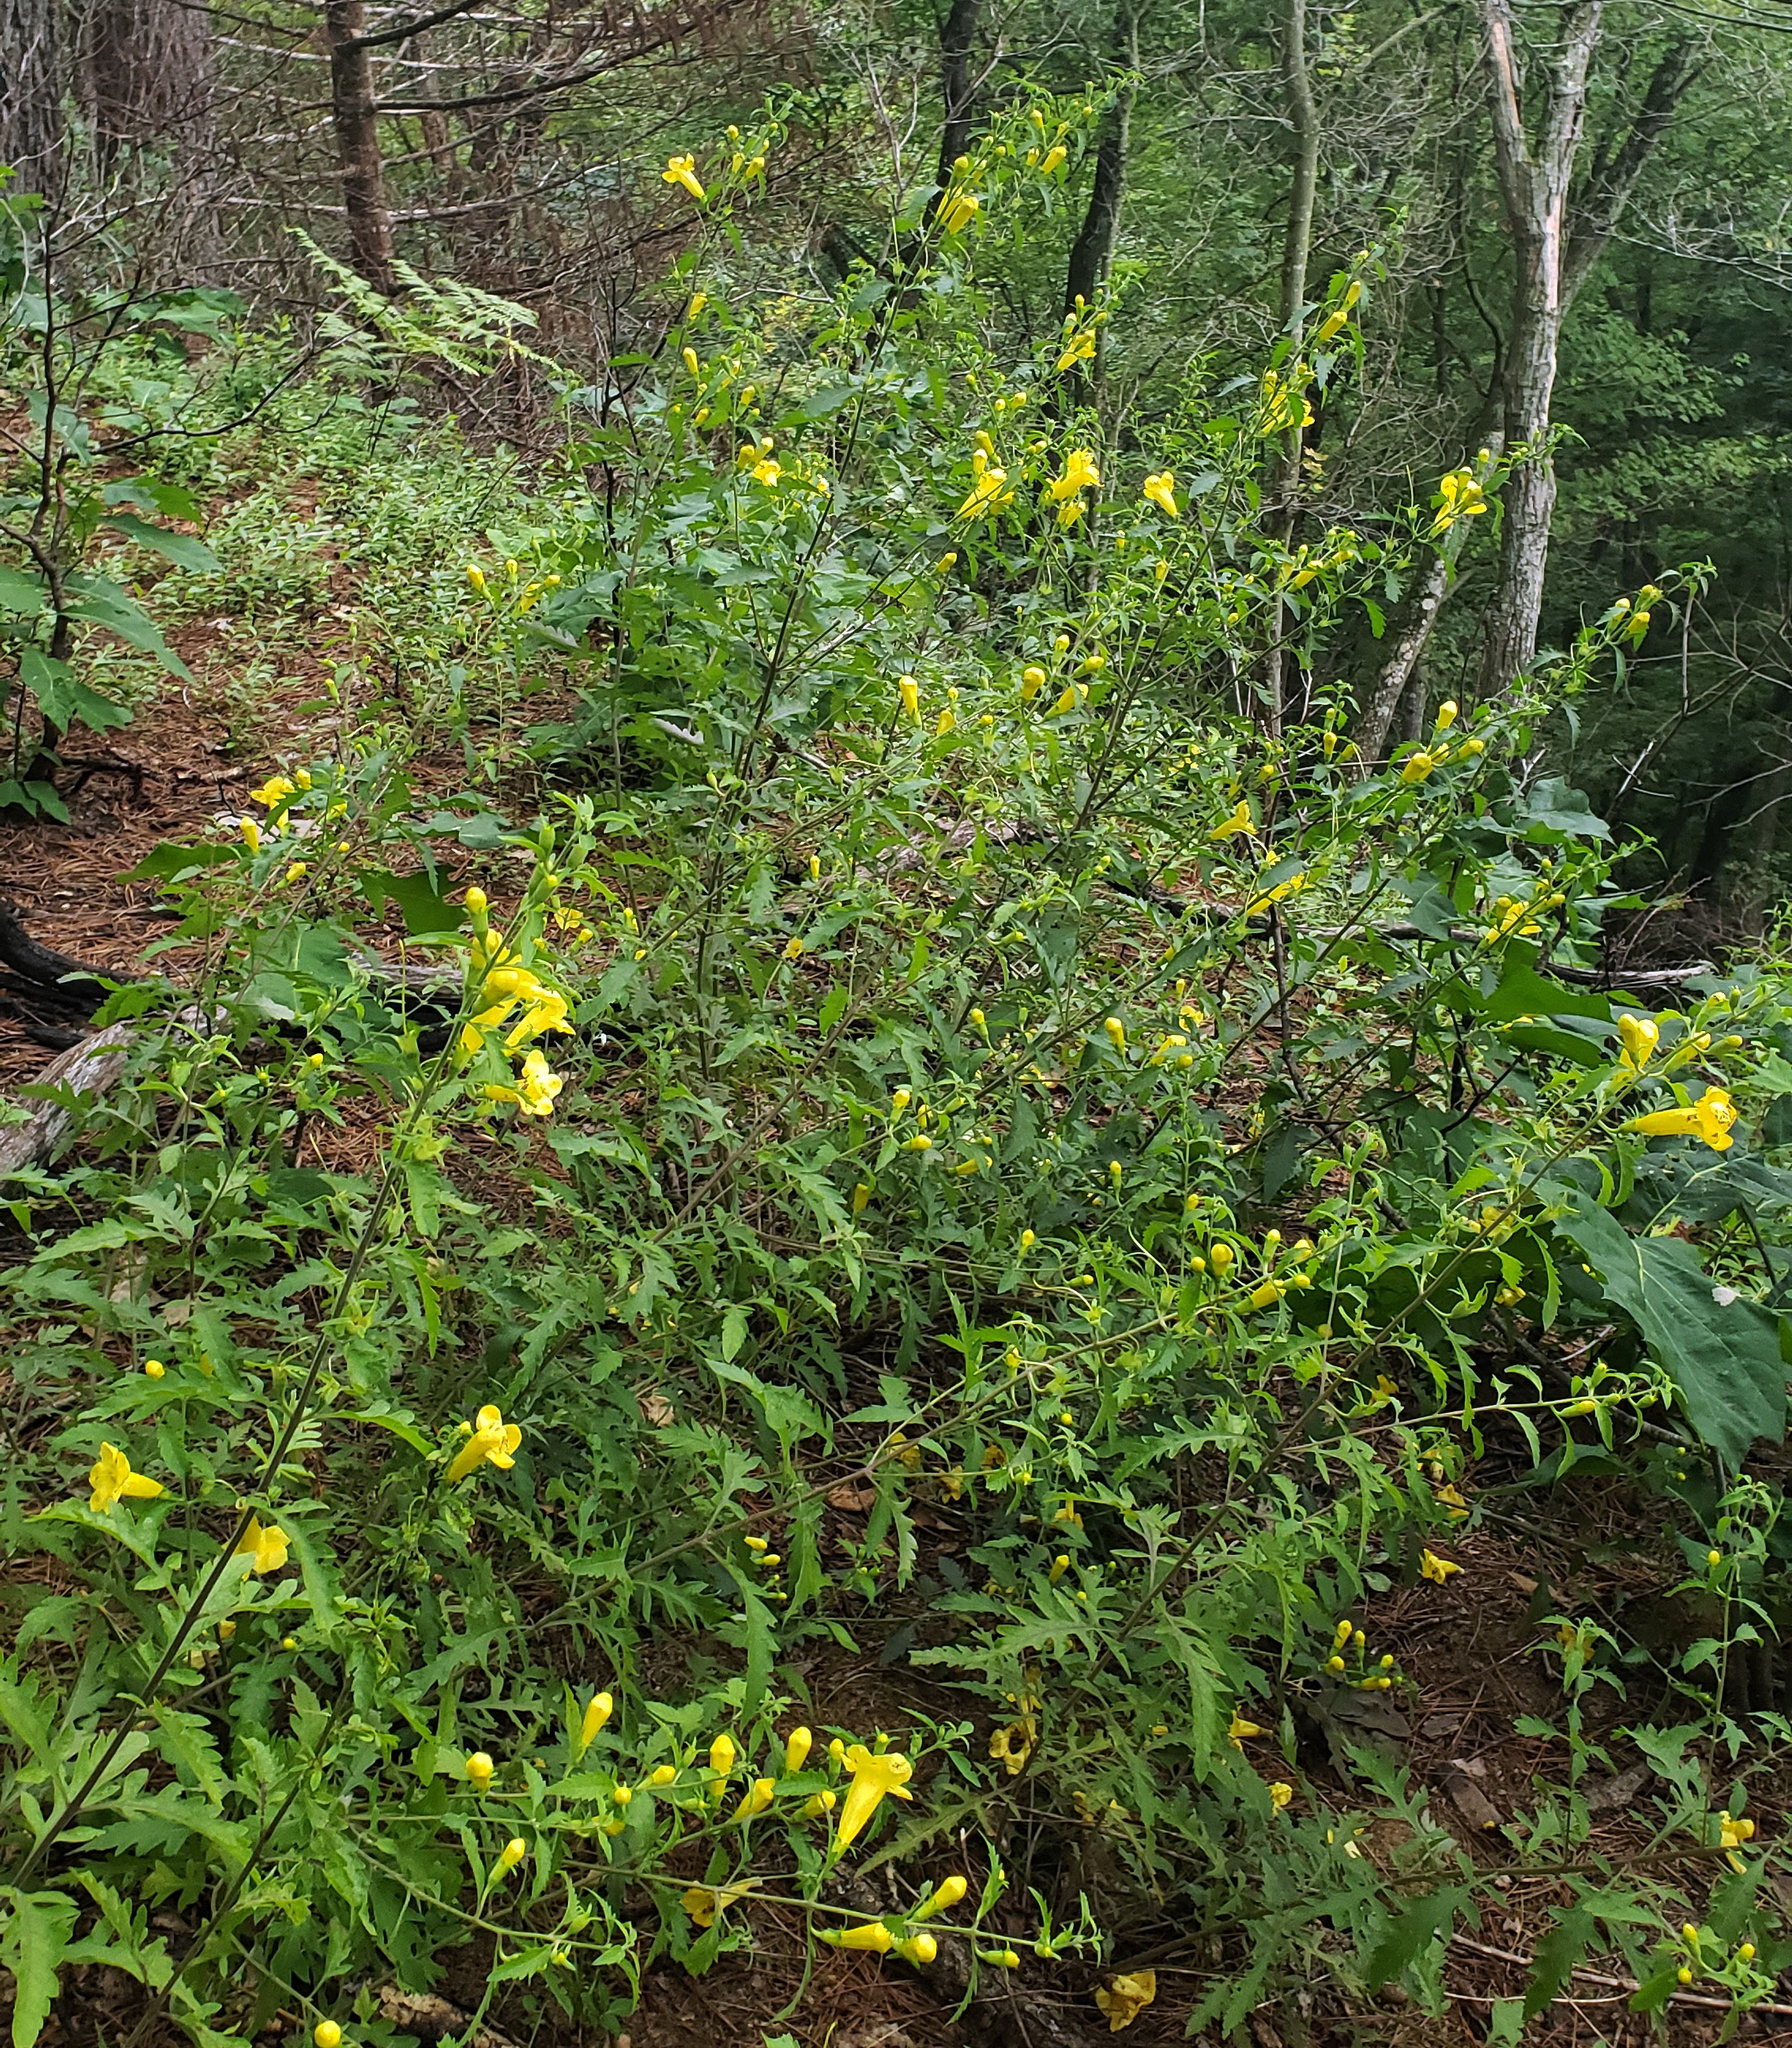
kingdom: Plantae
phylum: Tracheophyta
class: Magnoliopsida
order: Lamiales
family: Orobanchaceae
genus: Aureolaria
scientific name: Aureolaria grandiflora
